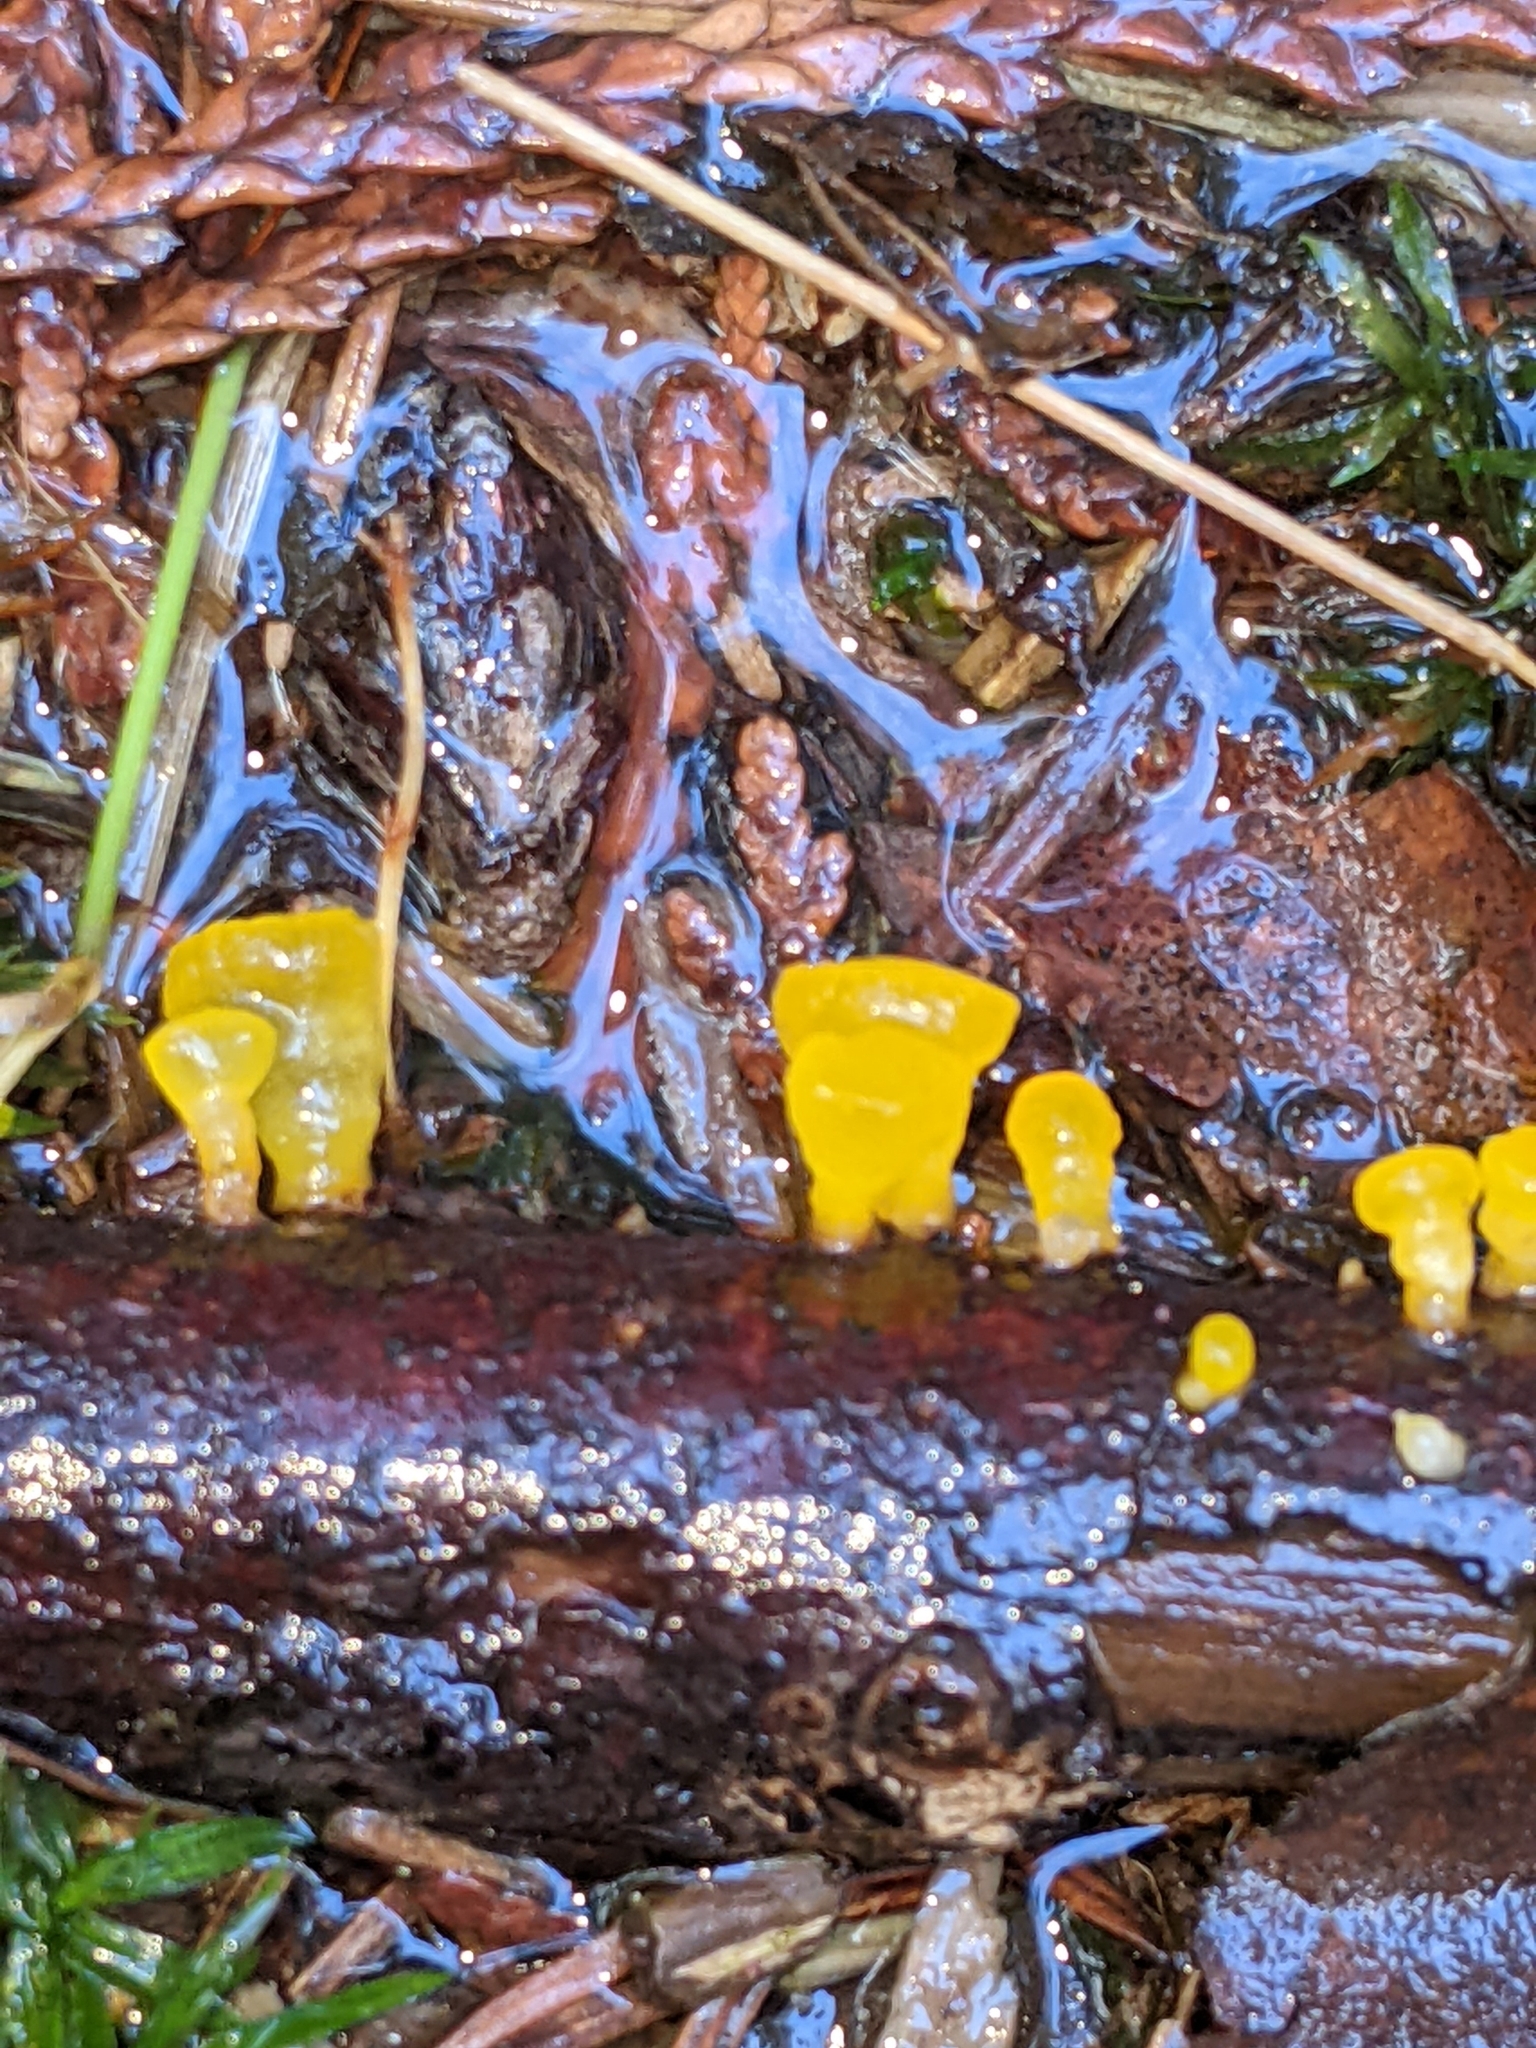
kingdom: Fungi
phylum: Basidiomycota
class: Dacrymycetes
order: Dacrymycetales
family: Dacrymycetaceae
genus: Guepiniopsis
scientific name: Guepiniopsis alpina
